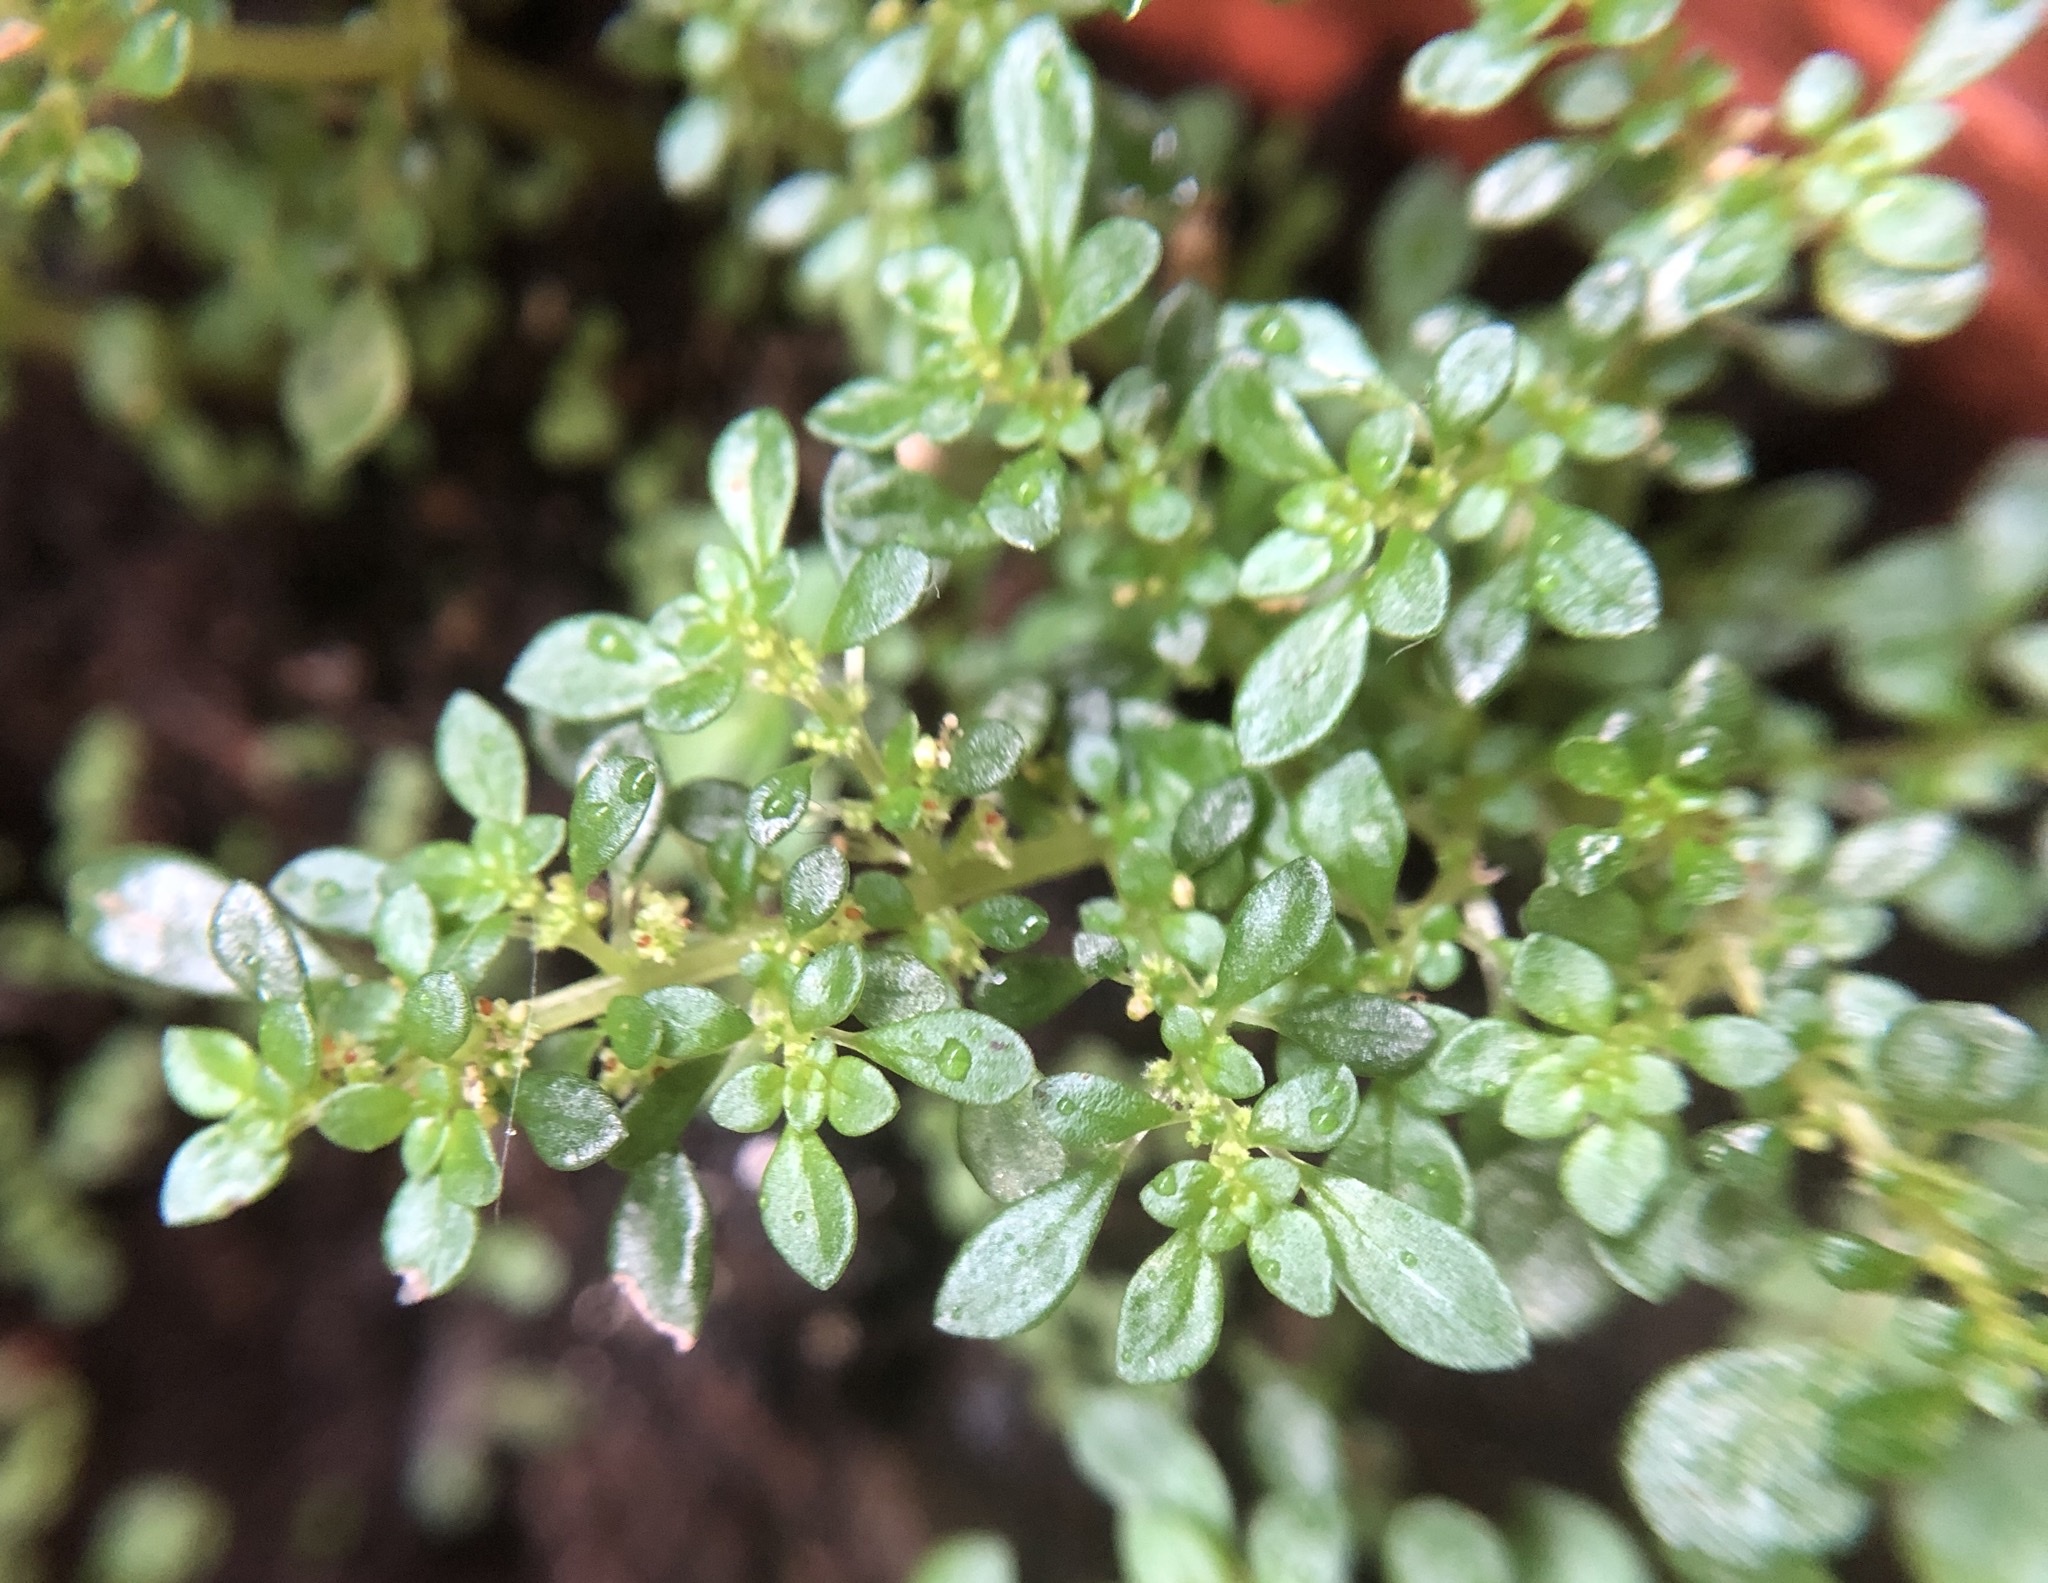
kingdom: Plantae
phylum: Tracheophyta
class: Magnoliopsida
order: Rosales
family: Urticaceae
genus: Pilea
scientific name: Pilea microphylla
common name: Artillery-plant
